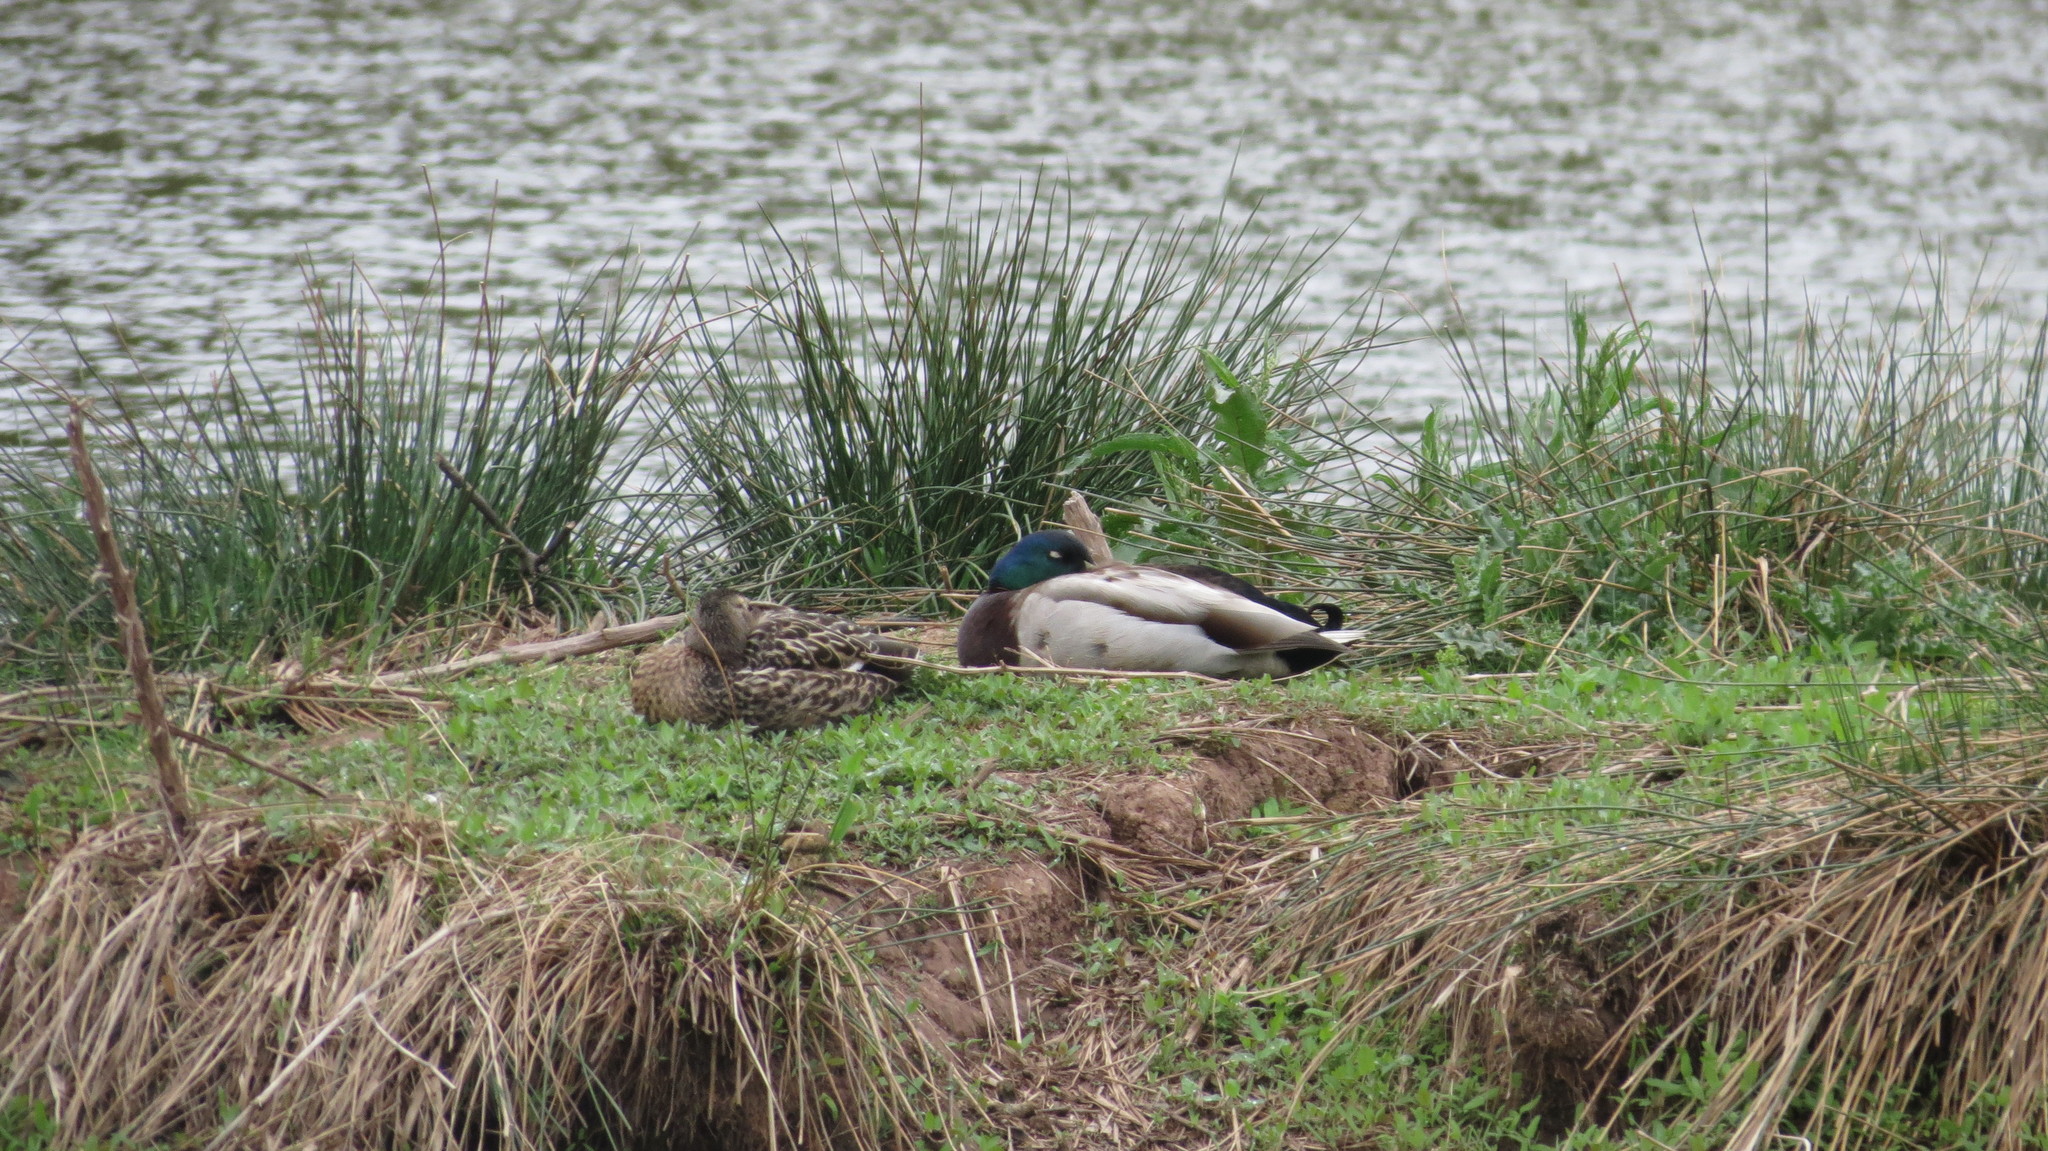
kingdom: Animalia
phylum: Chordata
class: Aves
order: Anseriformes
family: Anatidae
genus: Anas
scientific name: Anas platyrhynchos
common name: Mallard
